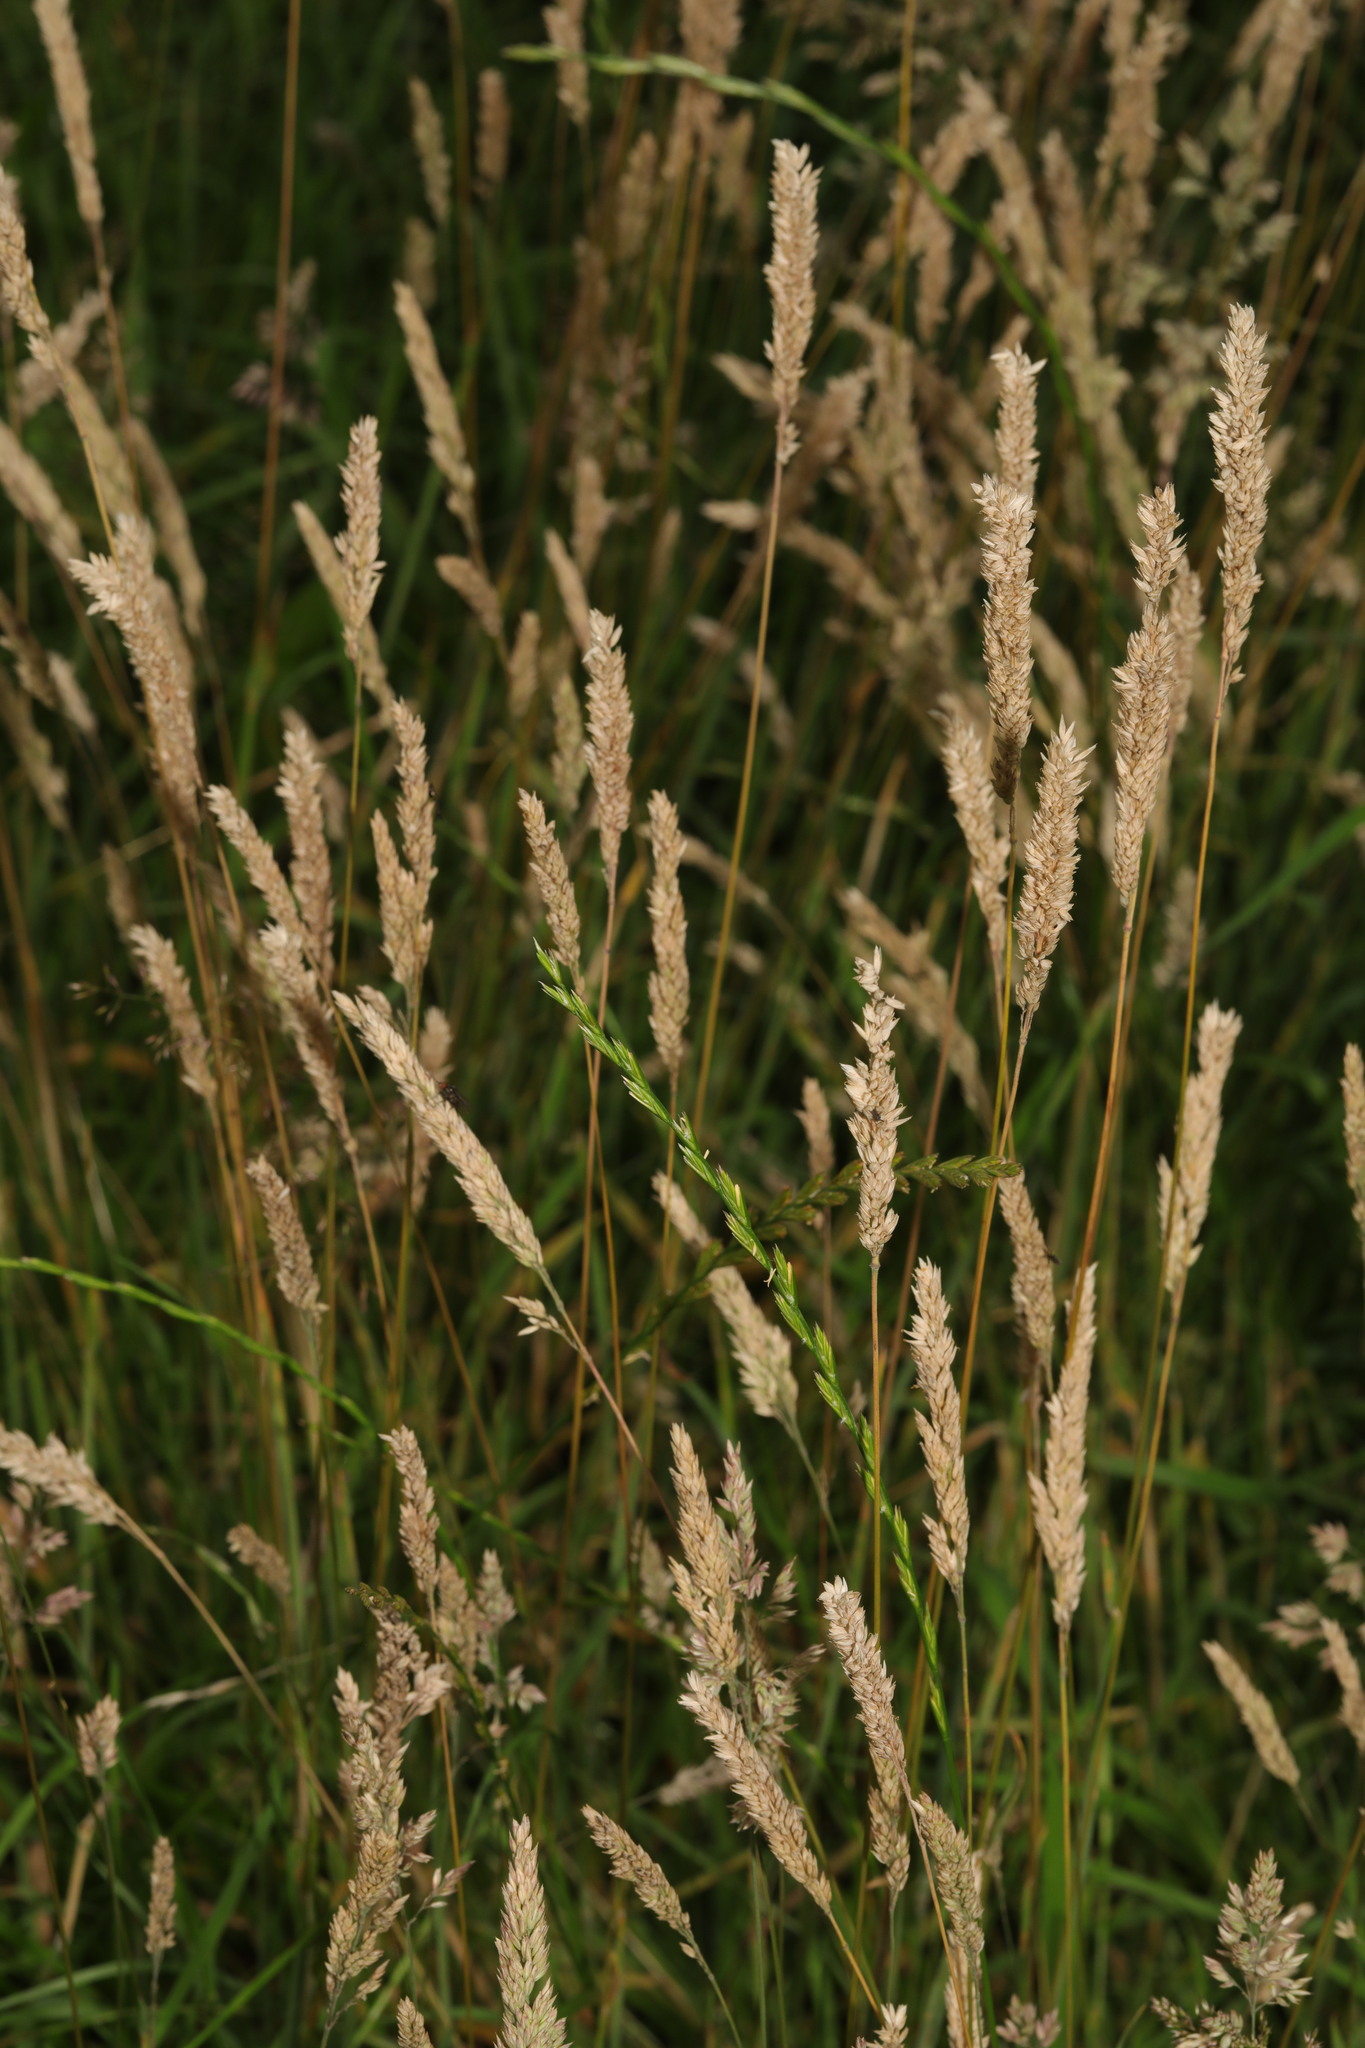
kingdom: Plantae
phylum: Tracheophyta
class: Liliopsida
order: Poales
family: Poaceae
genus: Holcus
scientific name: Holcus lanatus
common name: Yorkshire-fog
